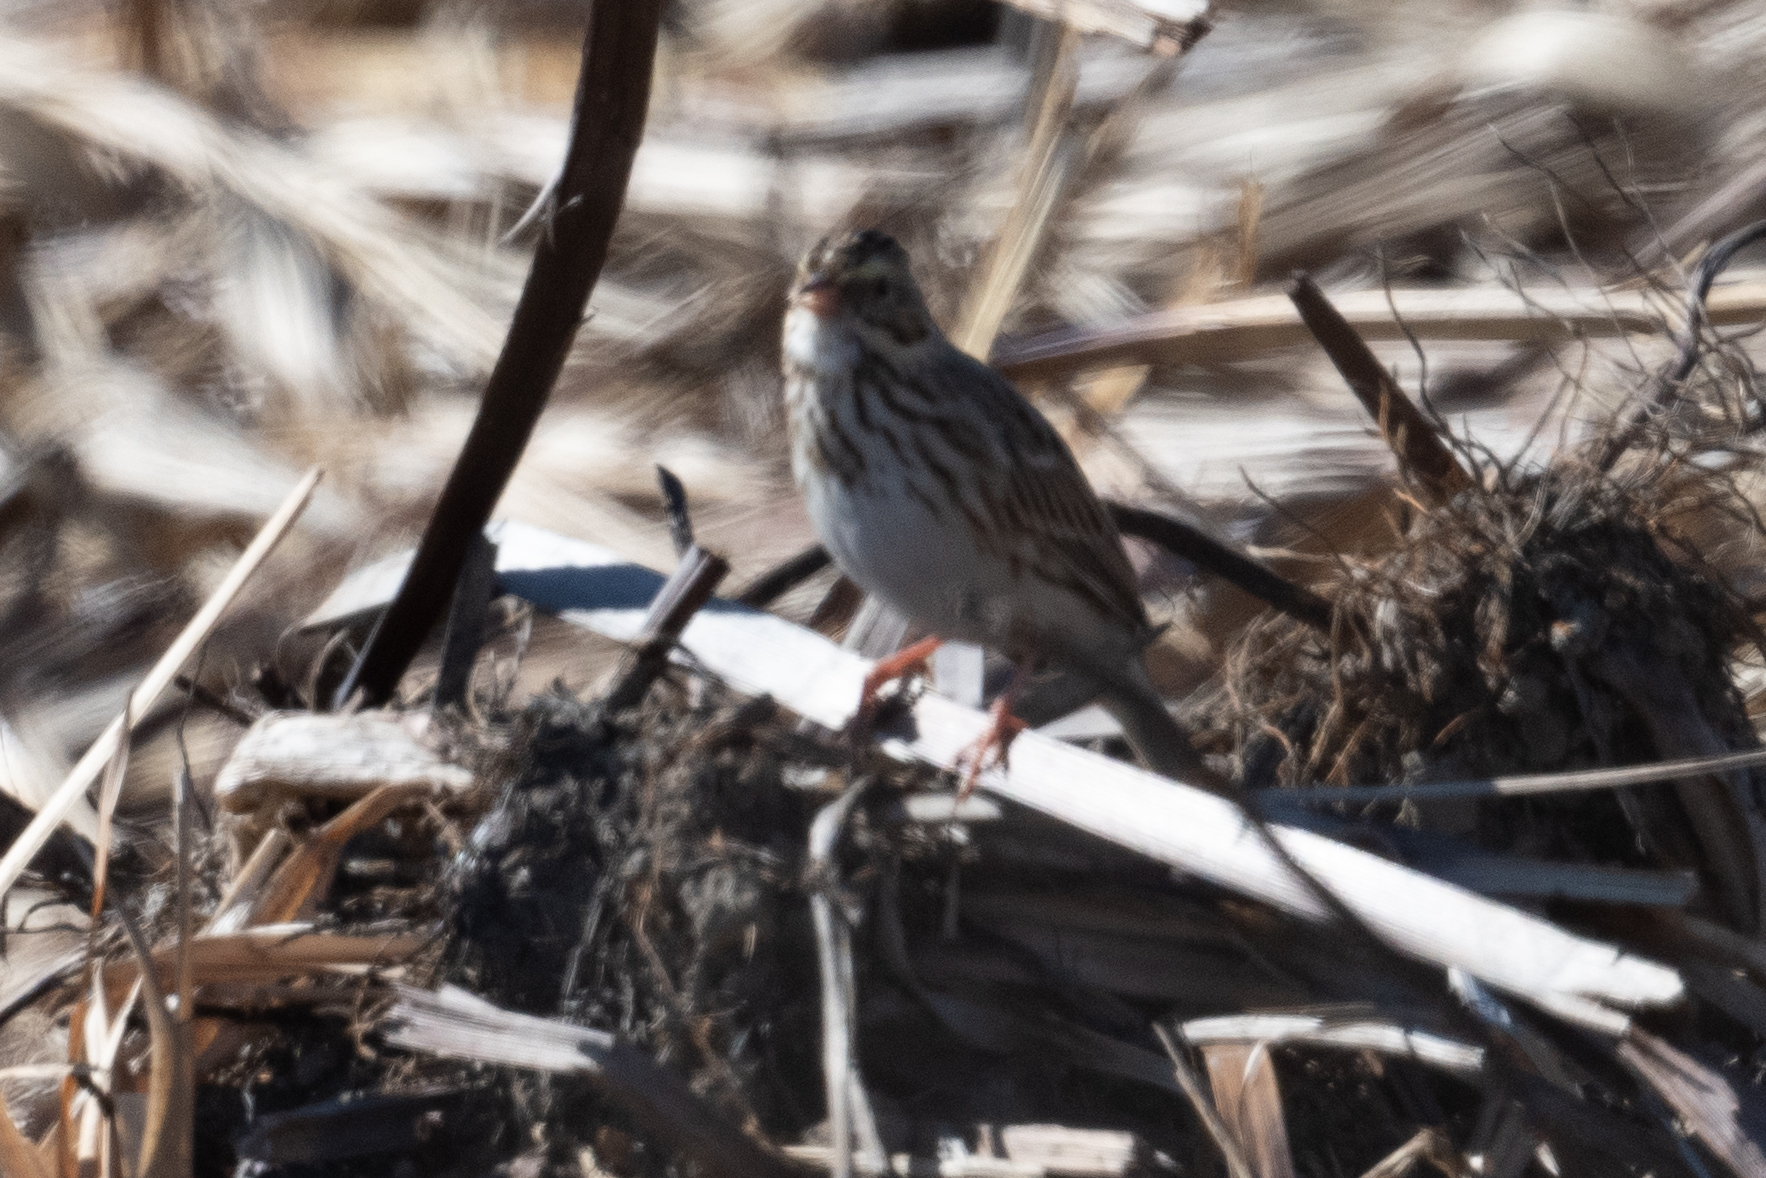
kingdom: Animalia
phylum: Chordata
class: Aves
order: Passeriformes
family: Passerellidae
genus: Passerculus
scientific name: Passerculus sandwichensis
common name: Savannah sparrow
